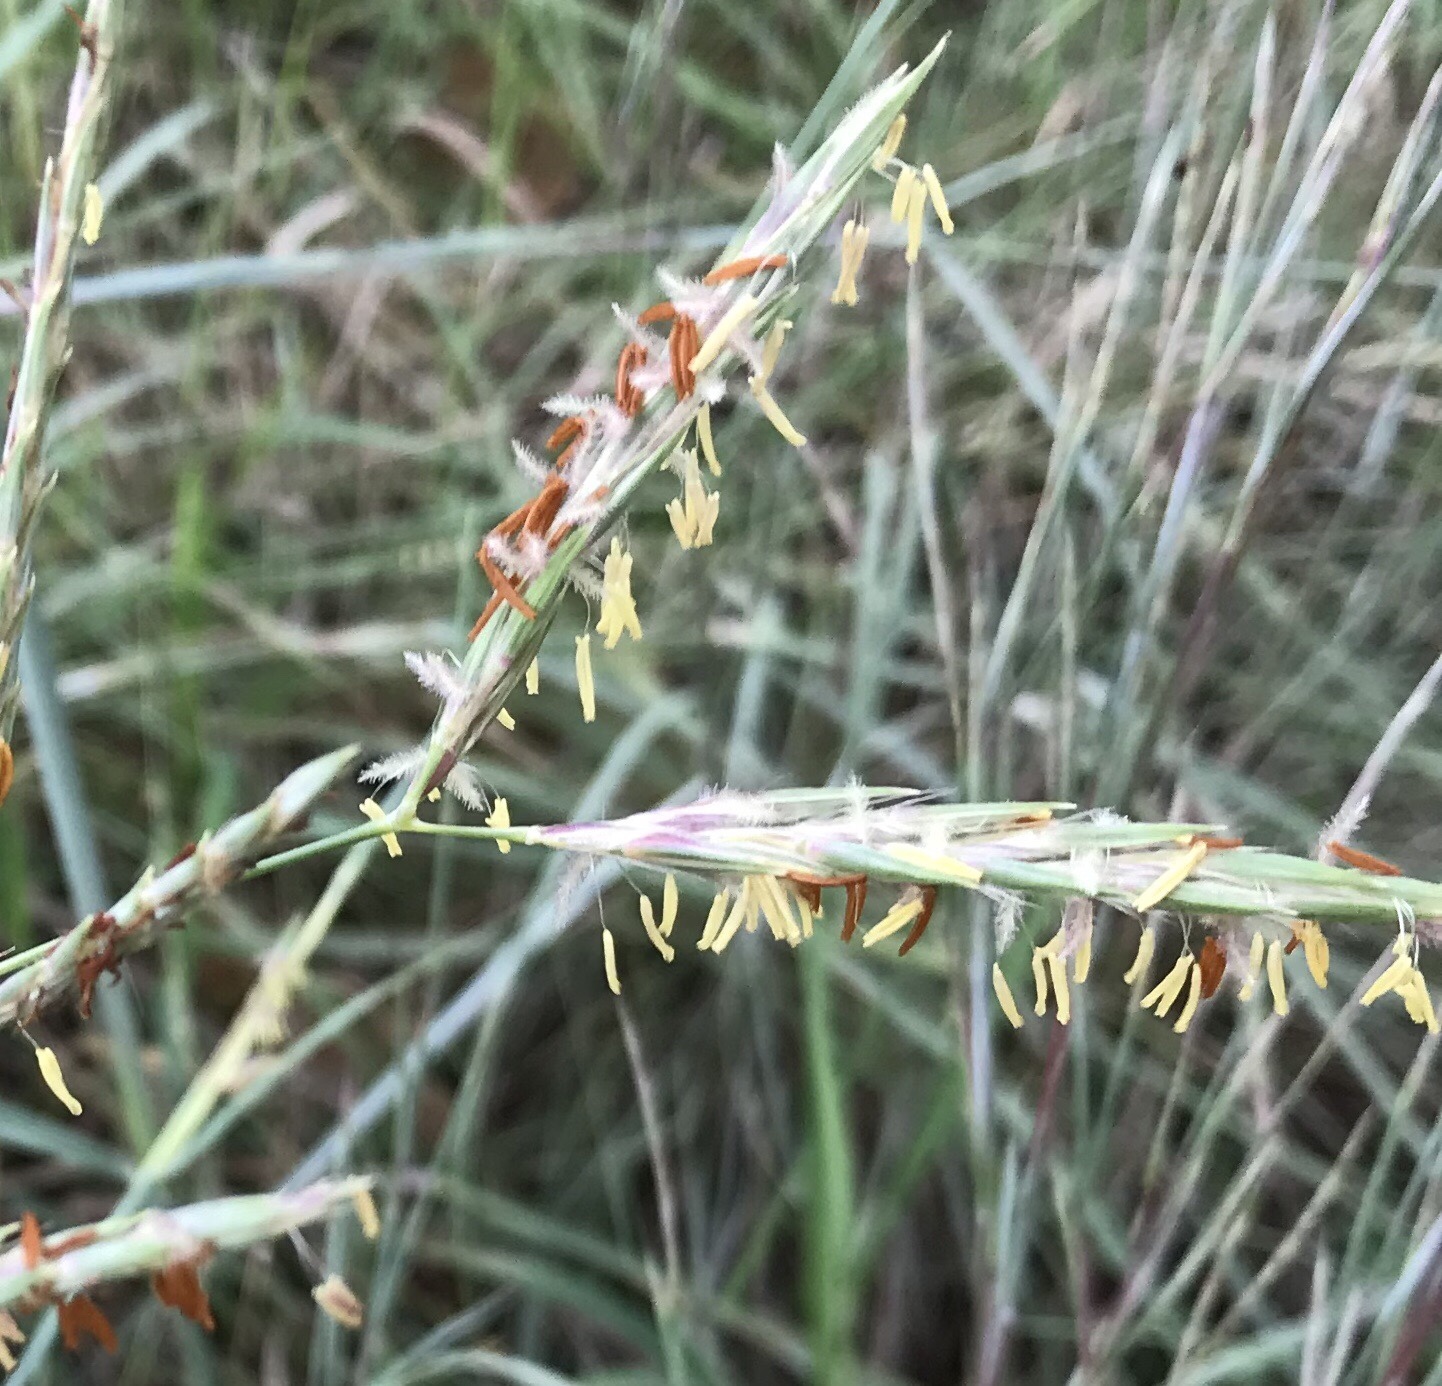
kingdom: Plantae
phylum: Tracheophyta
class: Liliopsida
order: Poales
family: Poaceae
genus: Andropogon
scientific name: Andropogon gerardi
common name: Big bluestem
